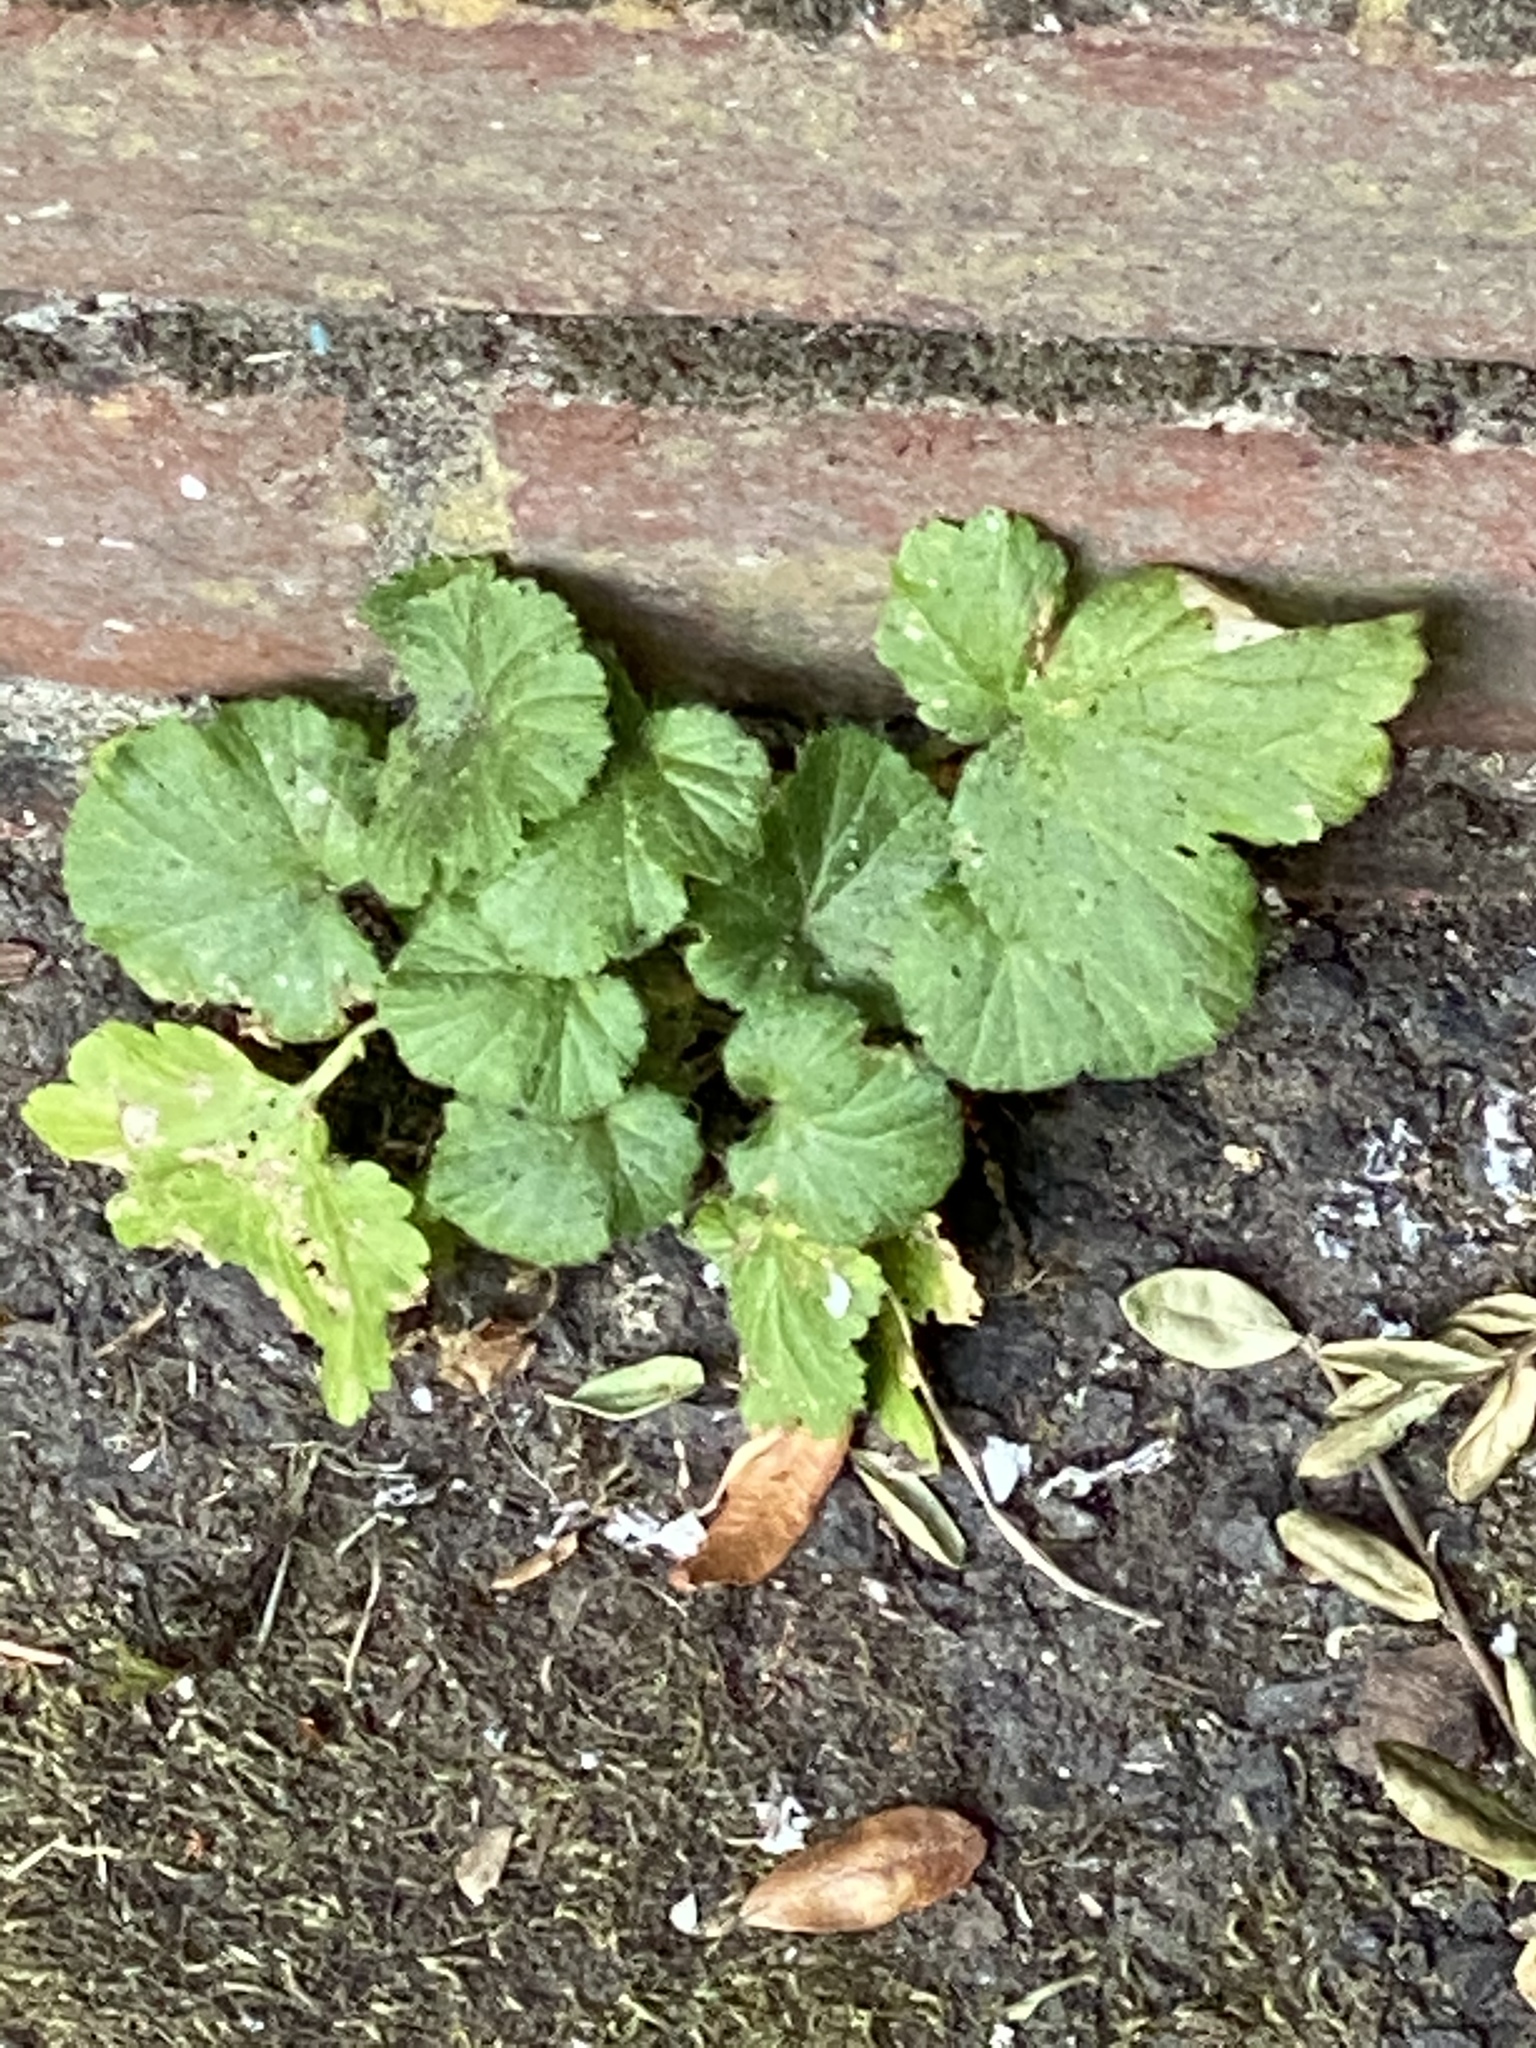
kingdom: Plantae
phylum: Tracheophyta
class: Magnoliopsida
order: Rosales
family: Rosaceae
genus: Geum
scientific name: Geum macrophyllum
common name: Large-leaved avens
